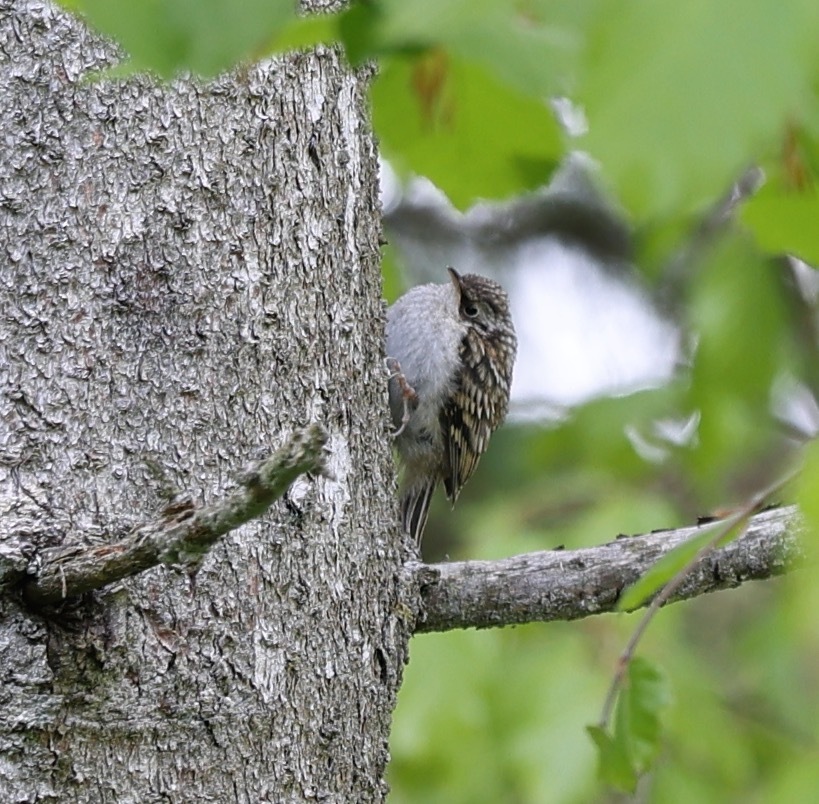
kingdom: Animalia
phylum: Chordata
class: Aves
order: Passeriformes
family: Certhiidae
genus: Certhia
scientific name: Certhia familiaris
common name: Eurasian treecreeper
